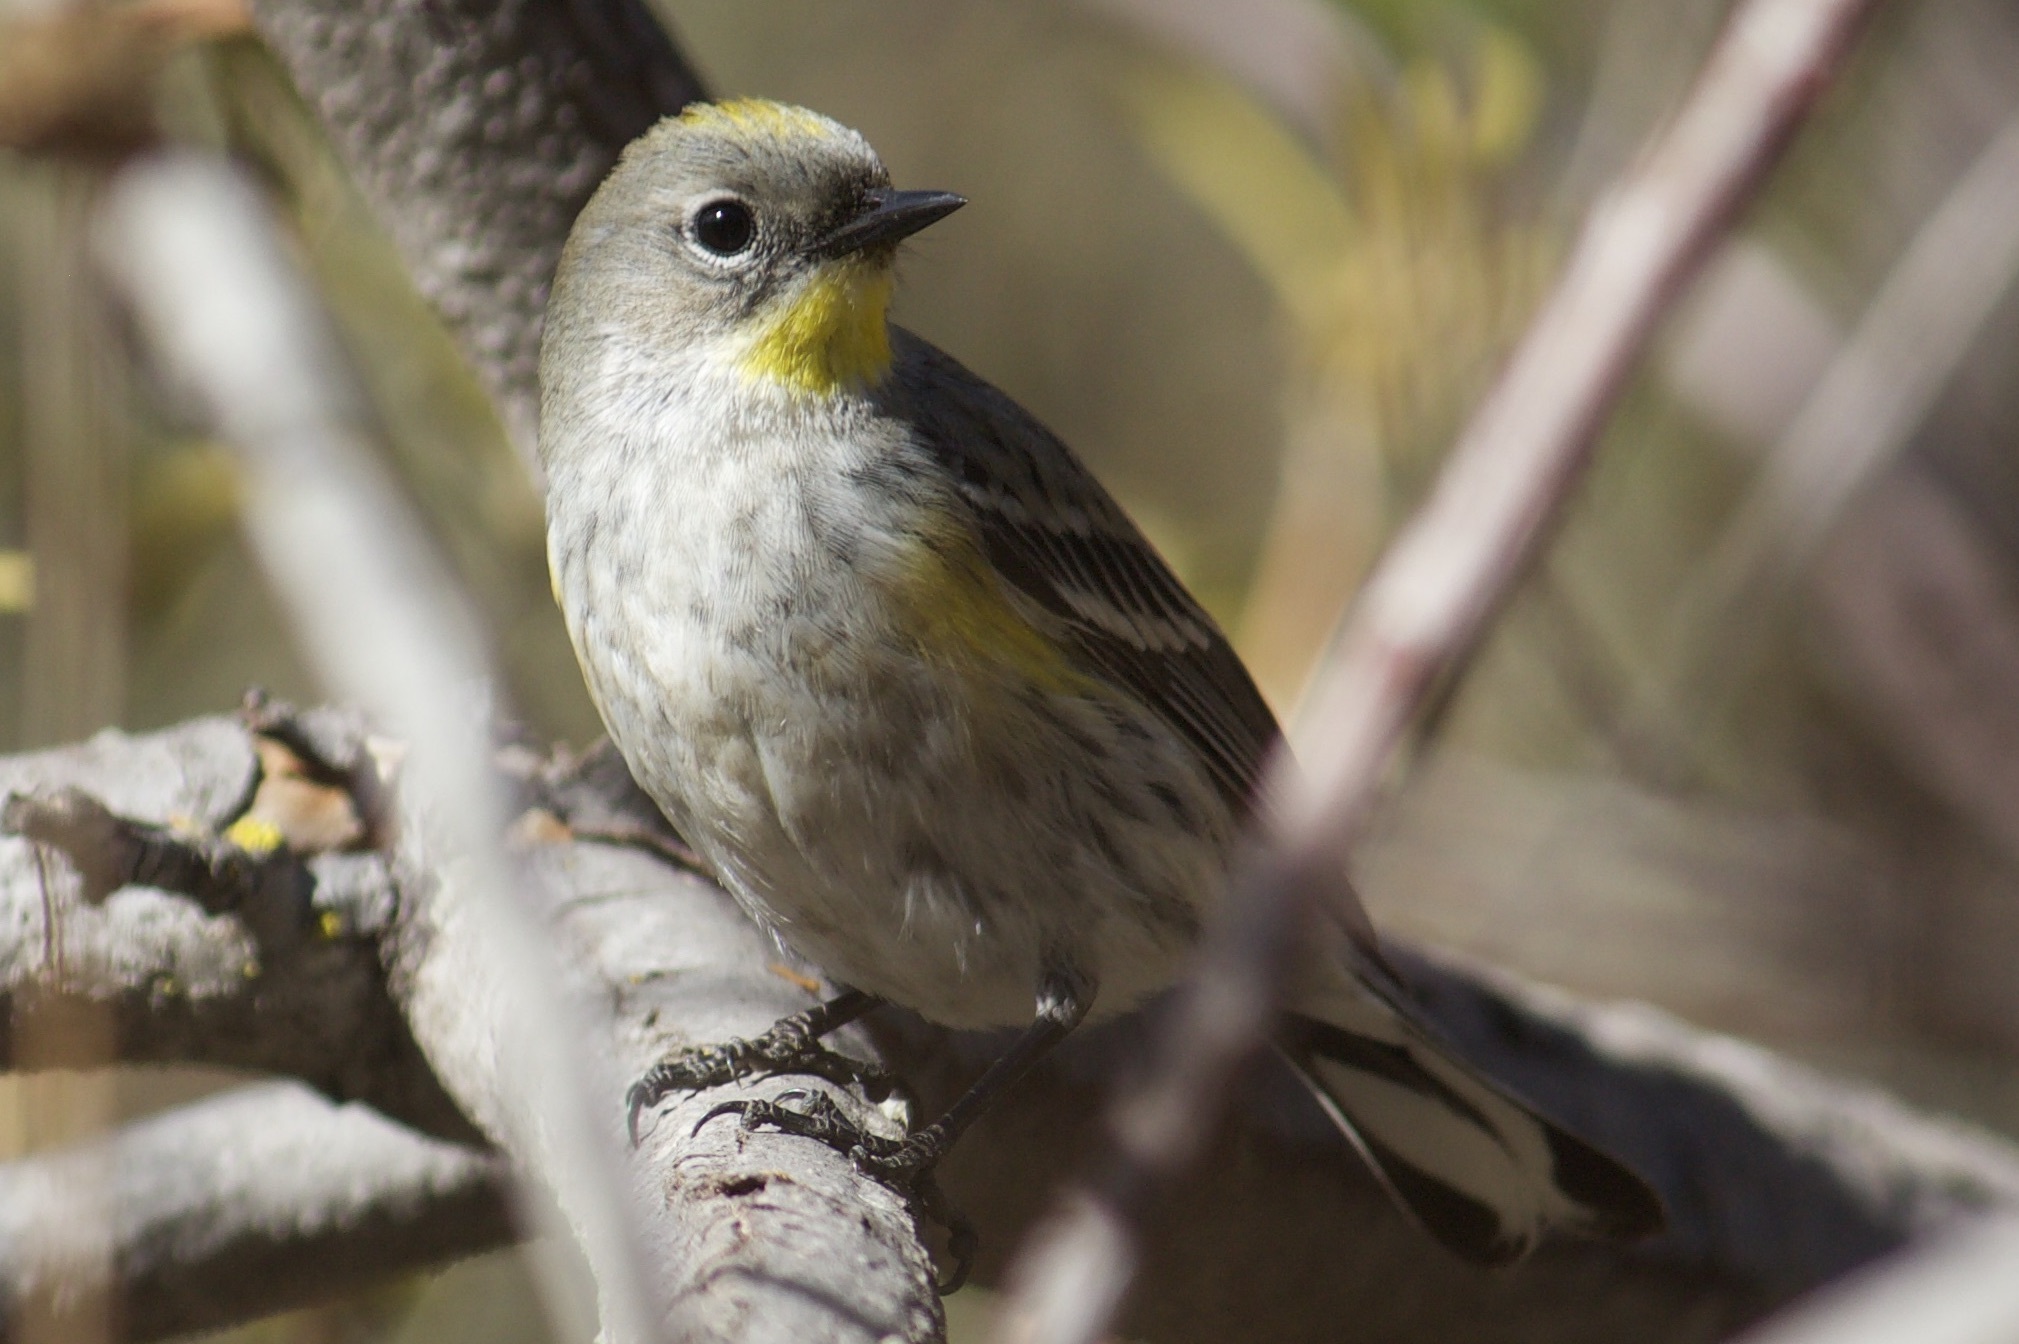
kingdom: Animalia
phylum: Chordata
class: Aves
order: Passeriformes
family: Parulidae
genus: Setophaga
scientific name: Setophaga coronata
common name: Myrtle warbler
